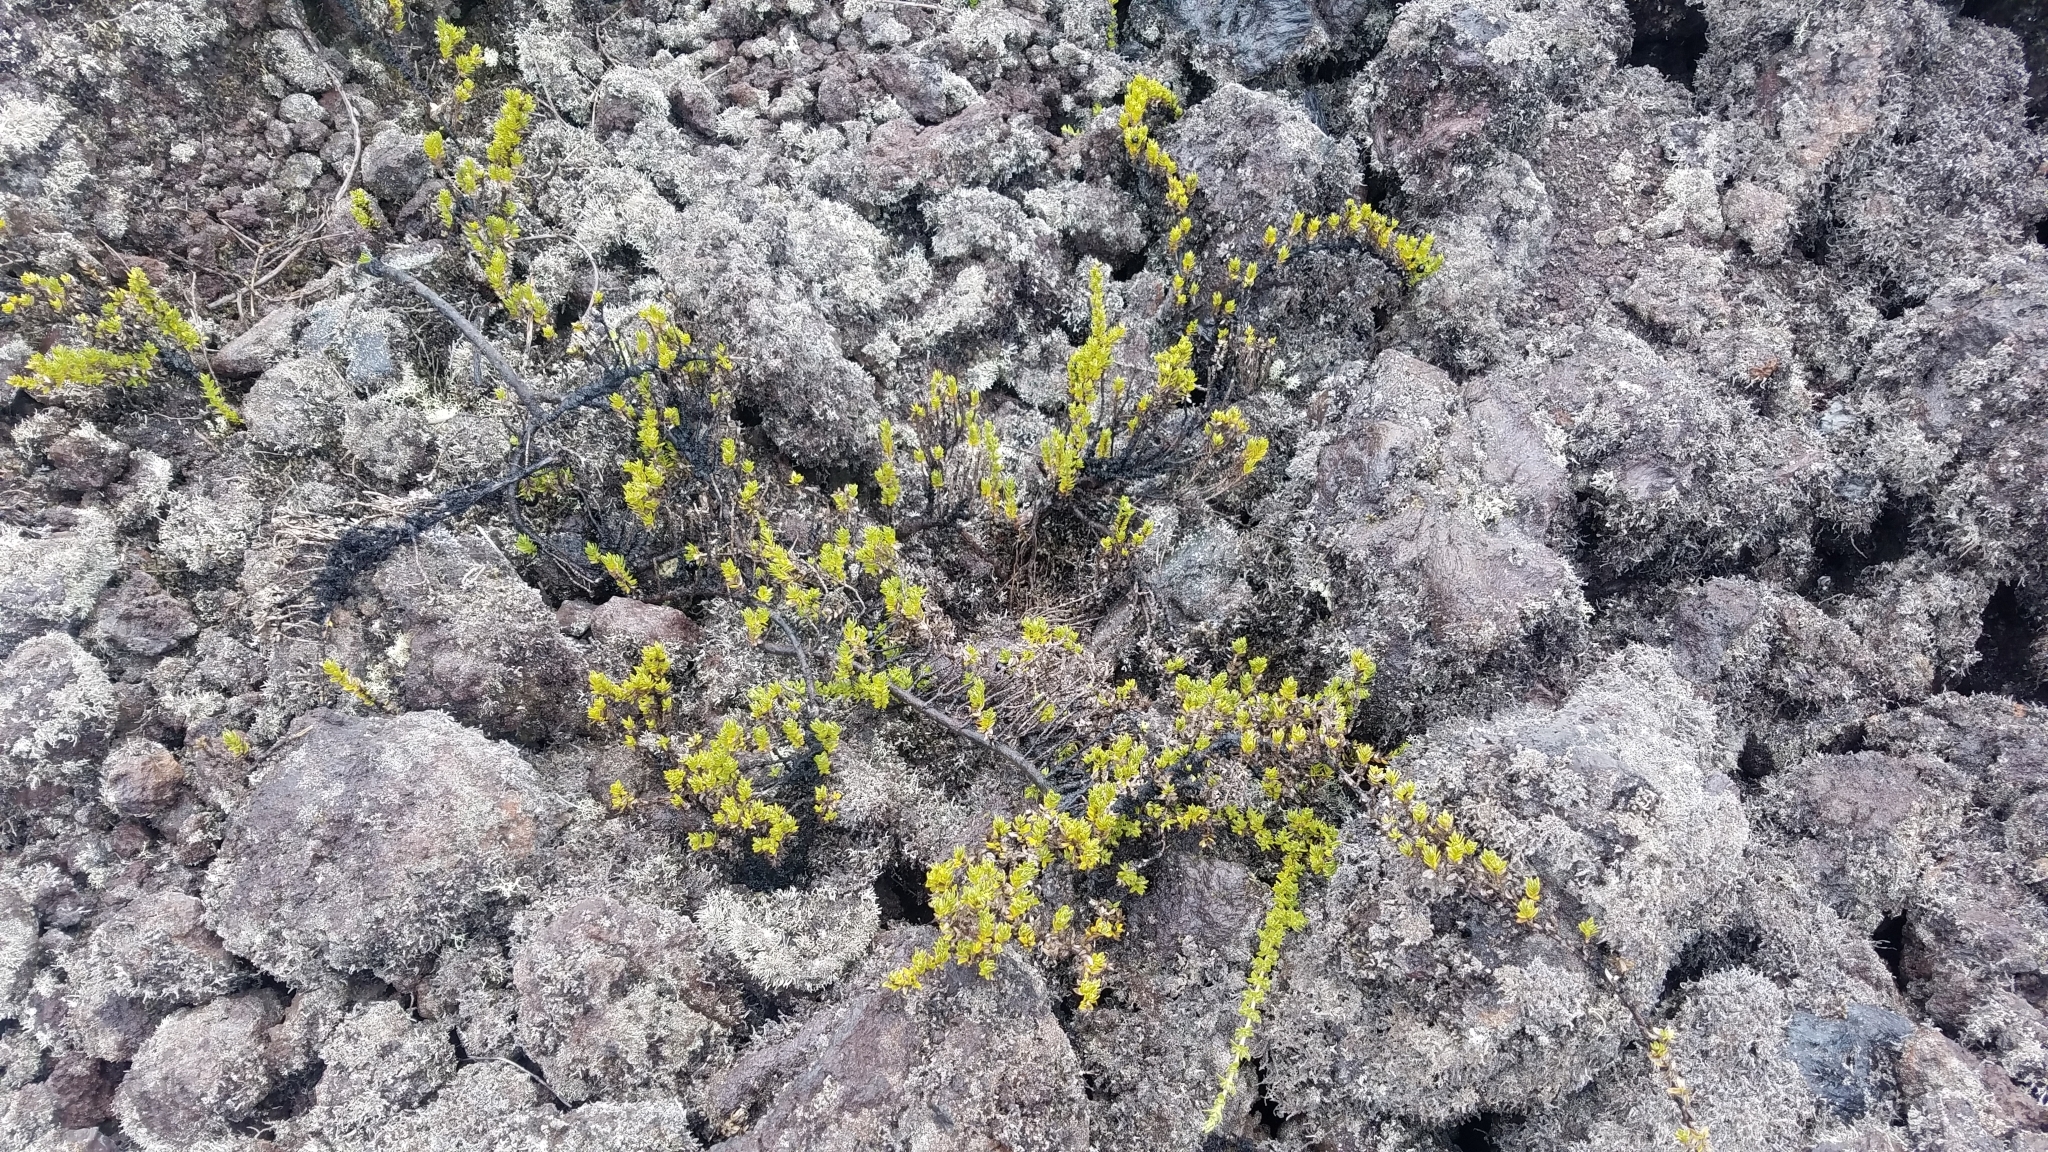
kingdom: Plantae
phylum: Tracheophyta
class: Magnoliopsida
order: Ericales
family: Ericaceae
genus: Leptecophylla
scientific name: Leptecophylla tameiameiae
